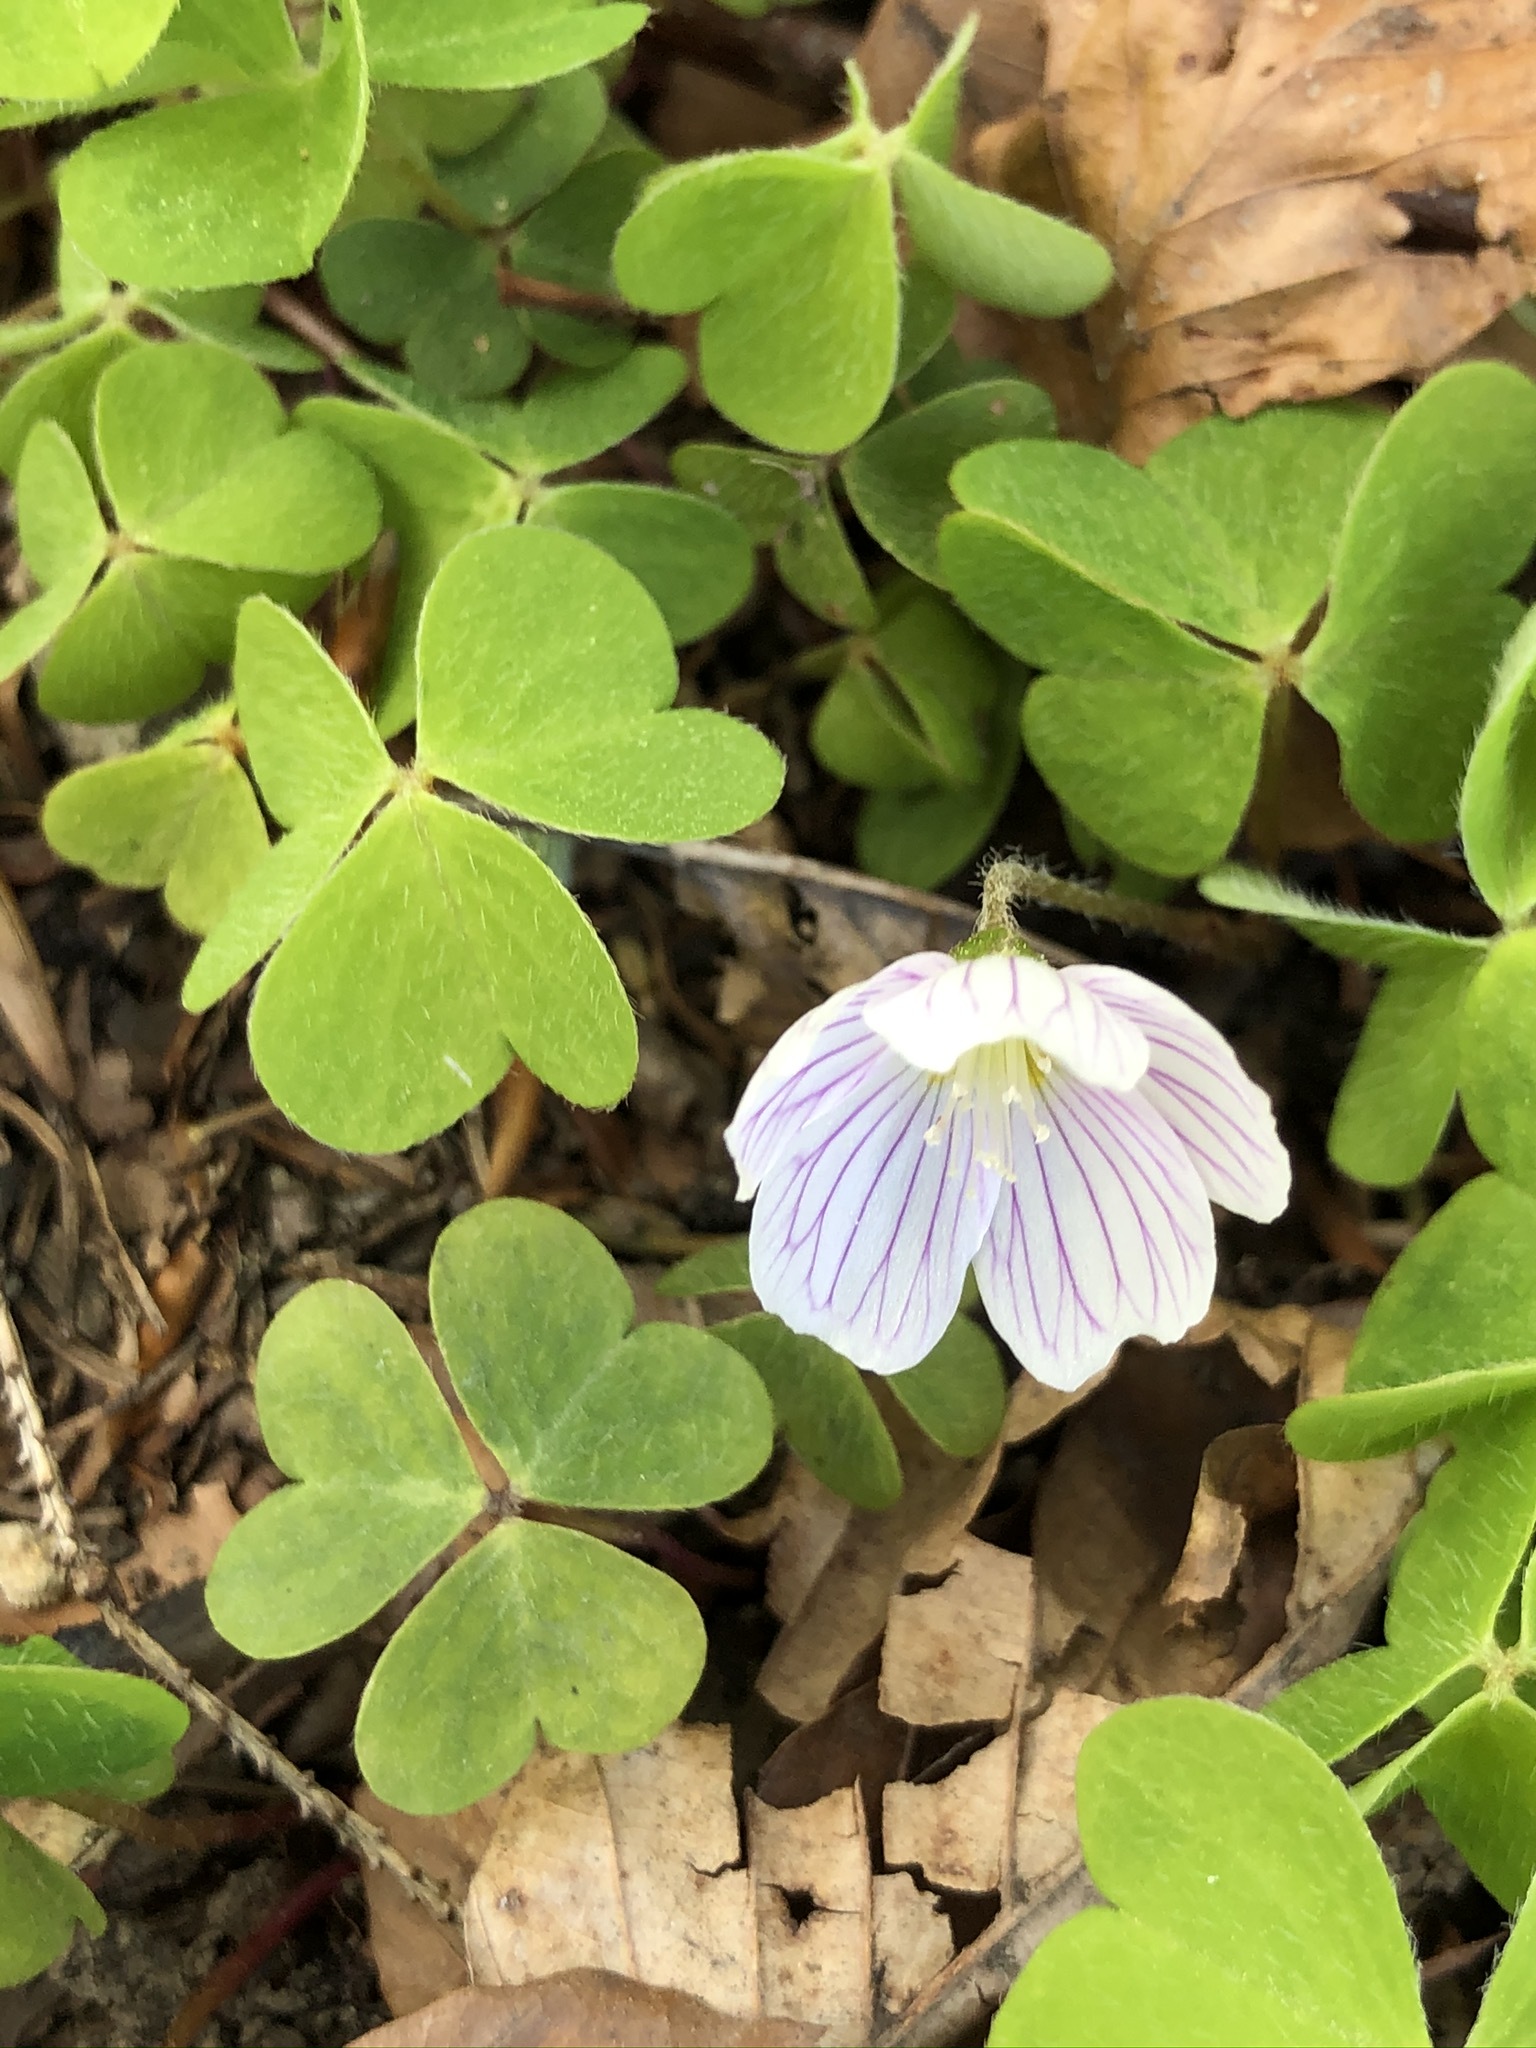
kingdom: Plantae
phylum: Tracheophyta
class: Magnoliopsida
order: Oxalidales
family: Oxalidaceae
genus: Oxalis
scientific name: Oxalis acetosella
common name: Wood-sorrel
